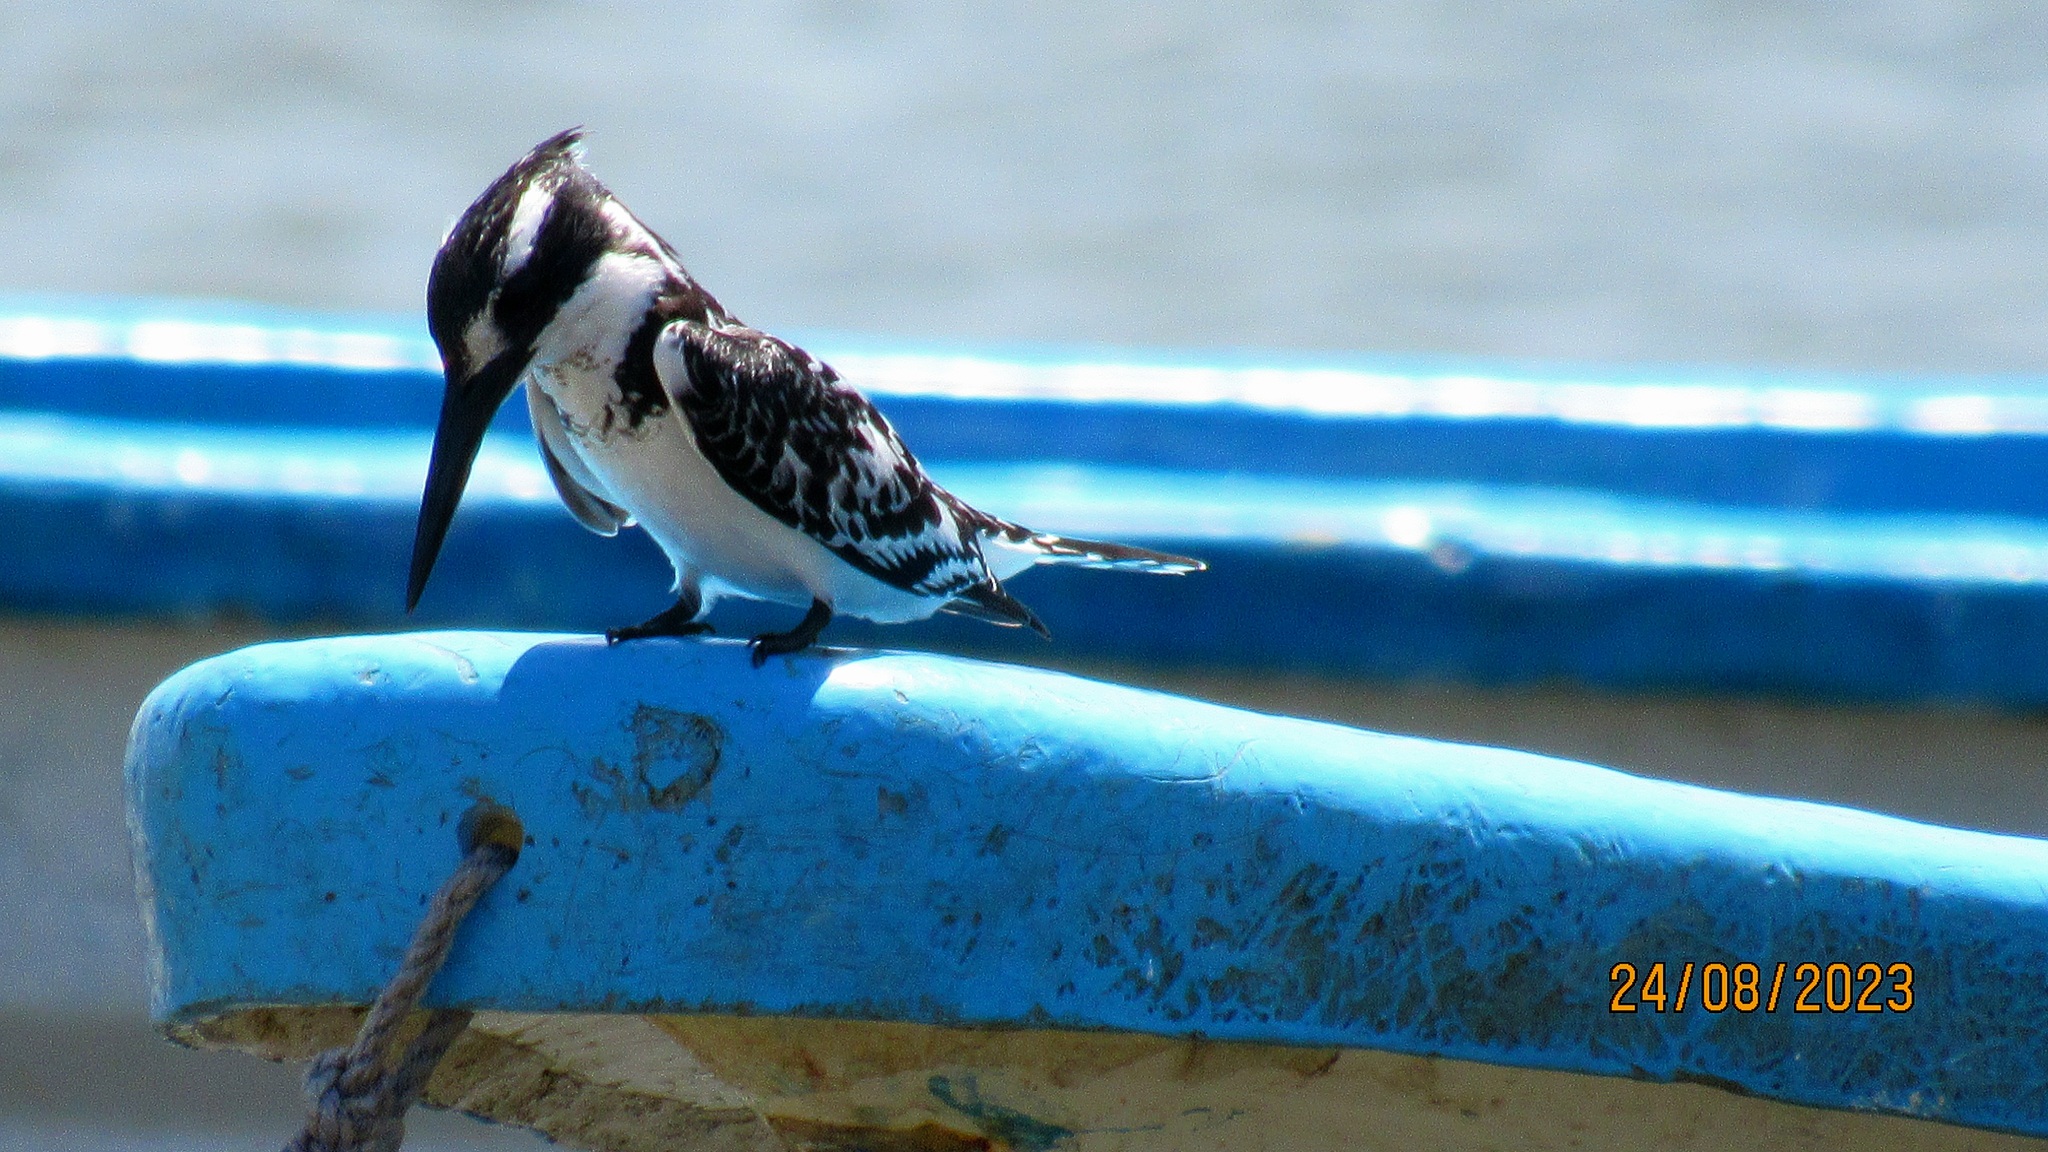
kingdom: Animalia
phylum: Chordata
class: Aves
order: Coraciiformes
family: Alcedinidae
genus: Ceryle
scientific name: Ceryle rudis
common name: Pied kingfisher
